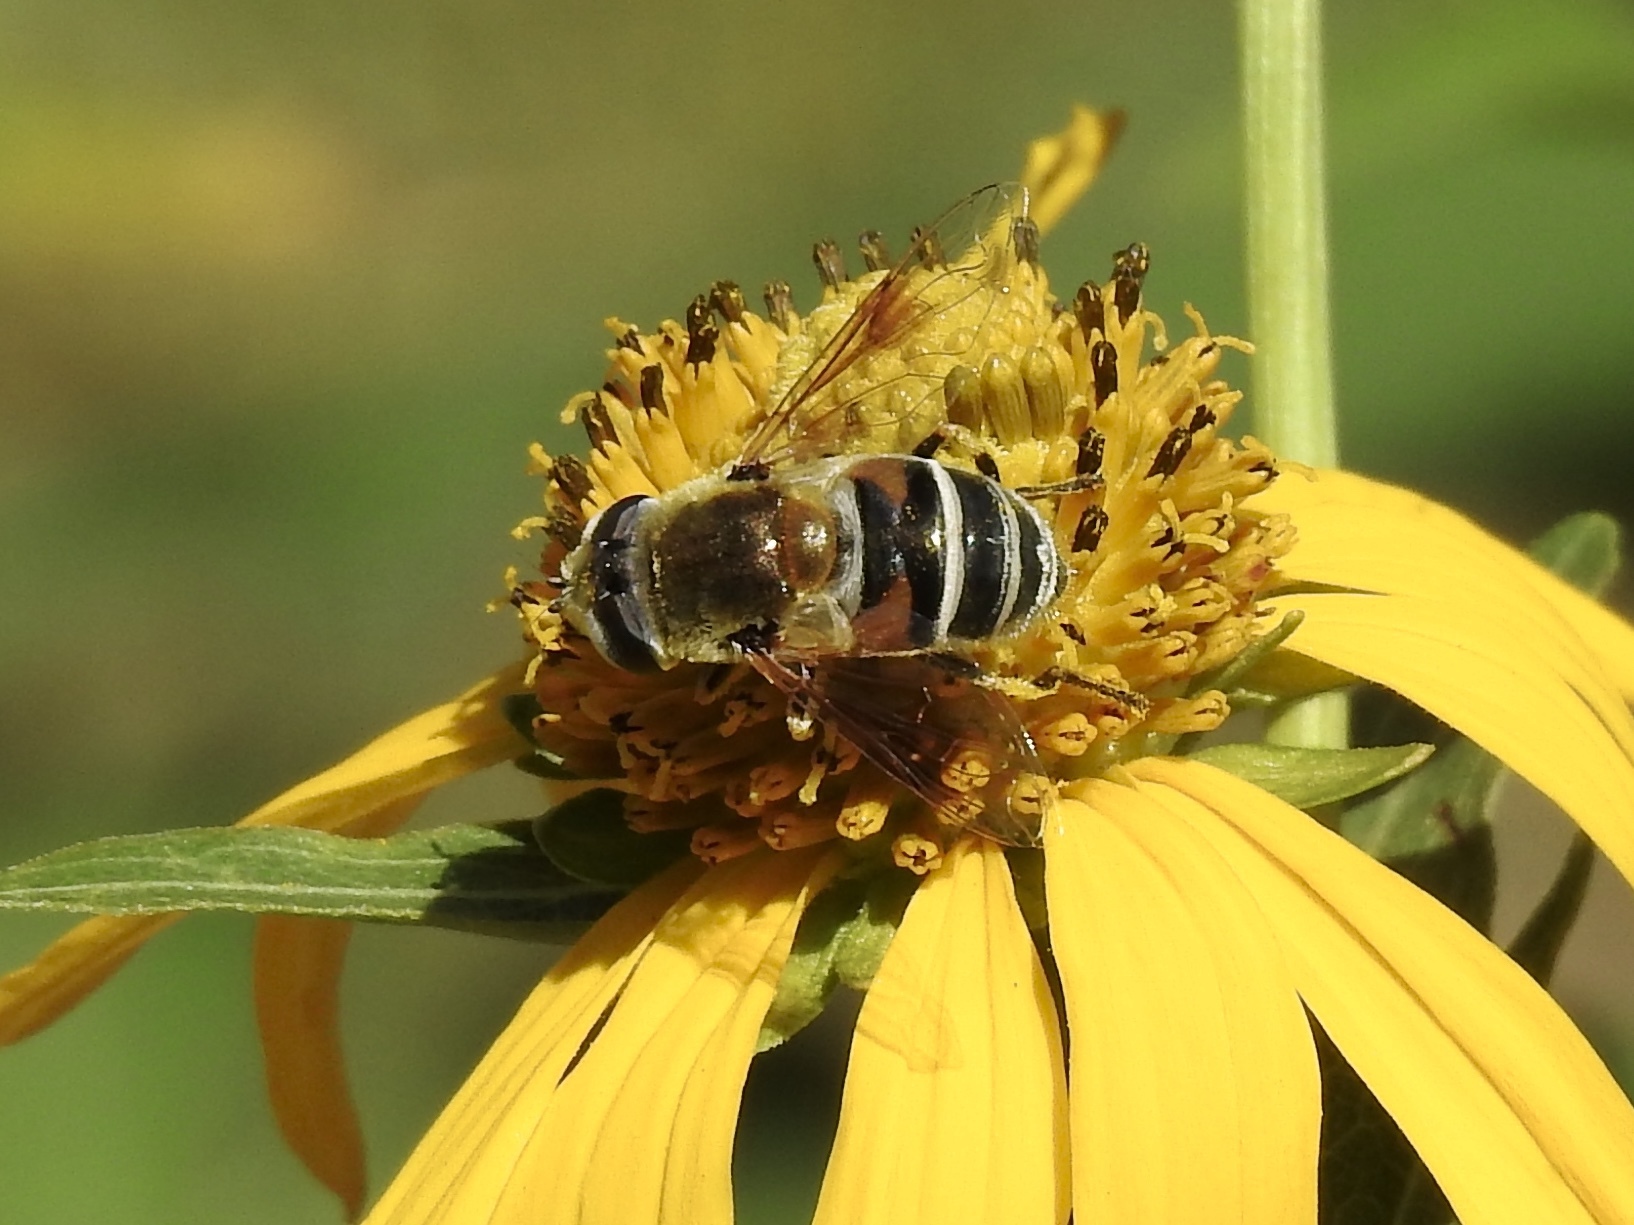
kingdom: Animalia
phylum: Arthropoda
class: Insecta
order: Diptera
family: Syrphidae
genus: Eristalis
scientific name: Eristalis stipator
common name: Yellow-shouldered drone fly
